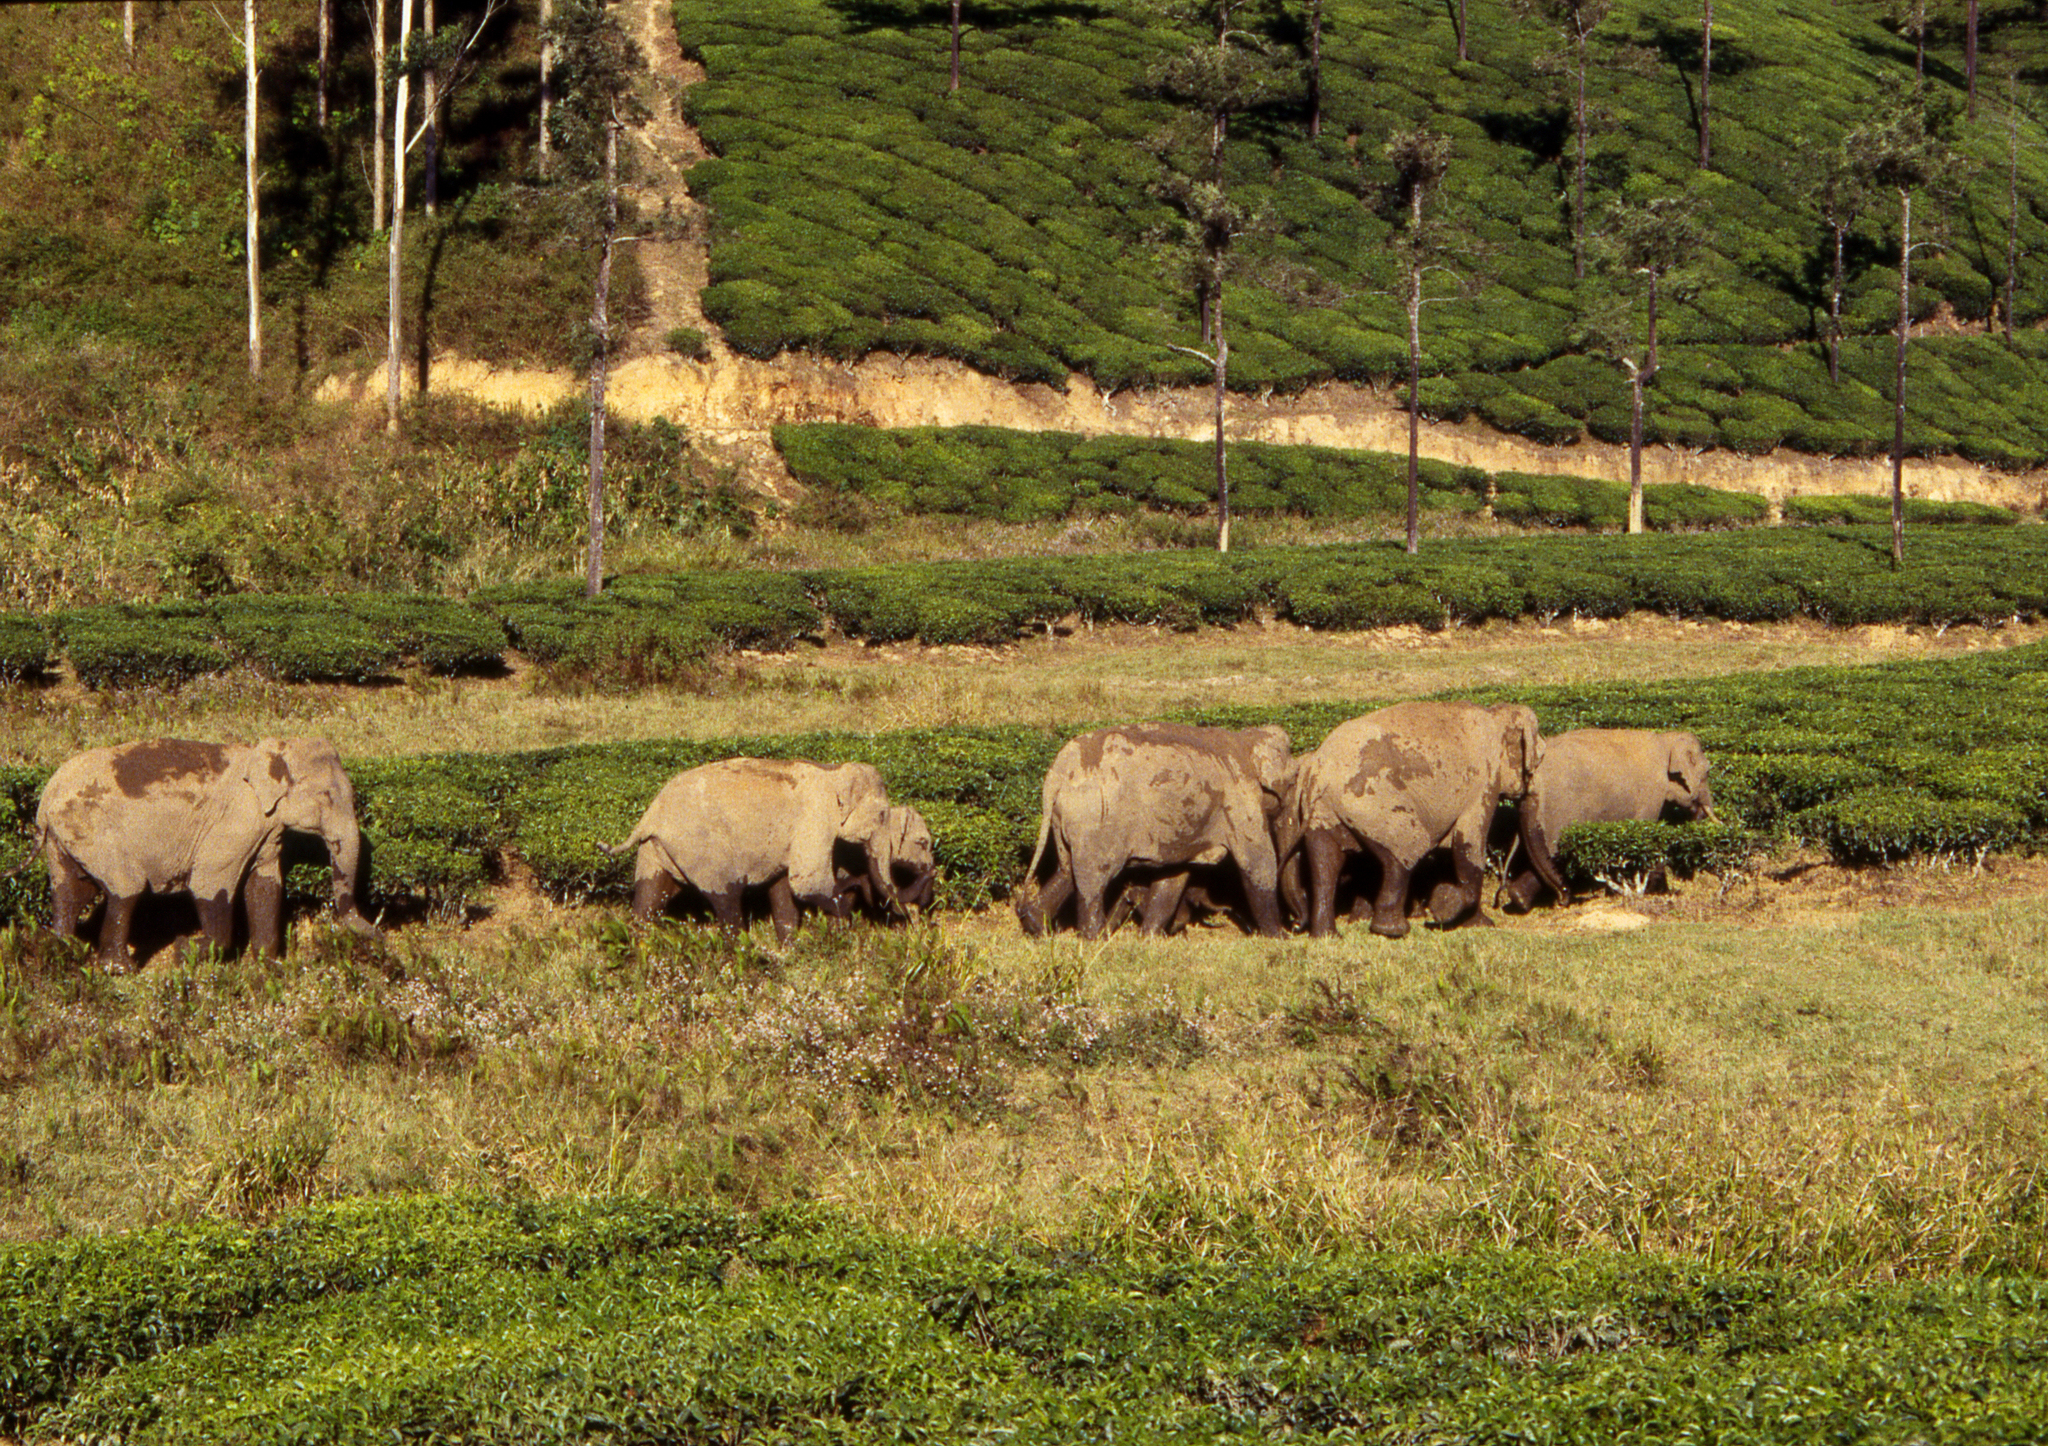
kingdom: Animalia
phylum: Chordata
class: Mammalia
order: Proboscidea
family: Elephantidae
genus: Elephas
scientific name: Elephas maximus
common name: Asian elephant
